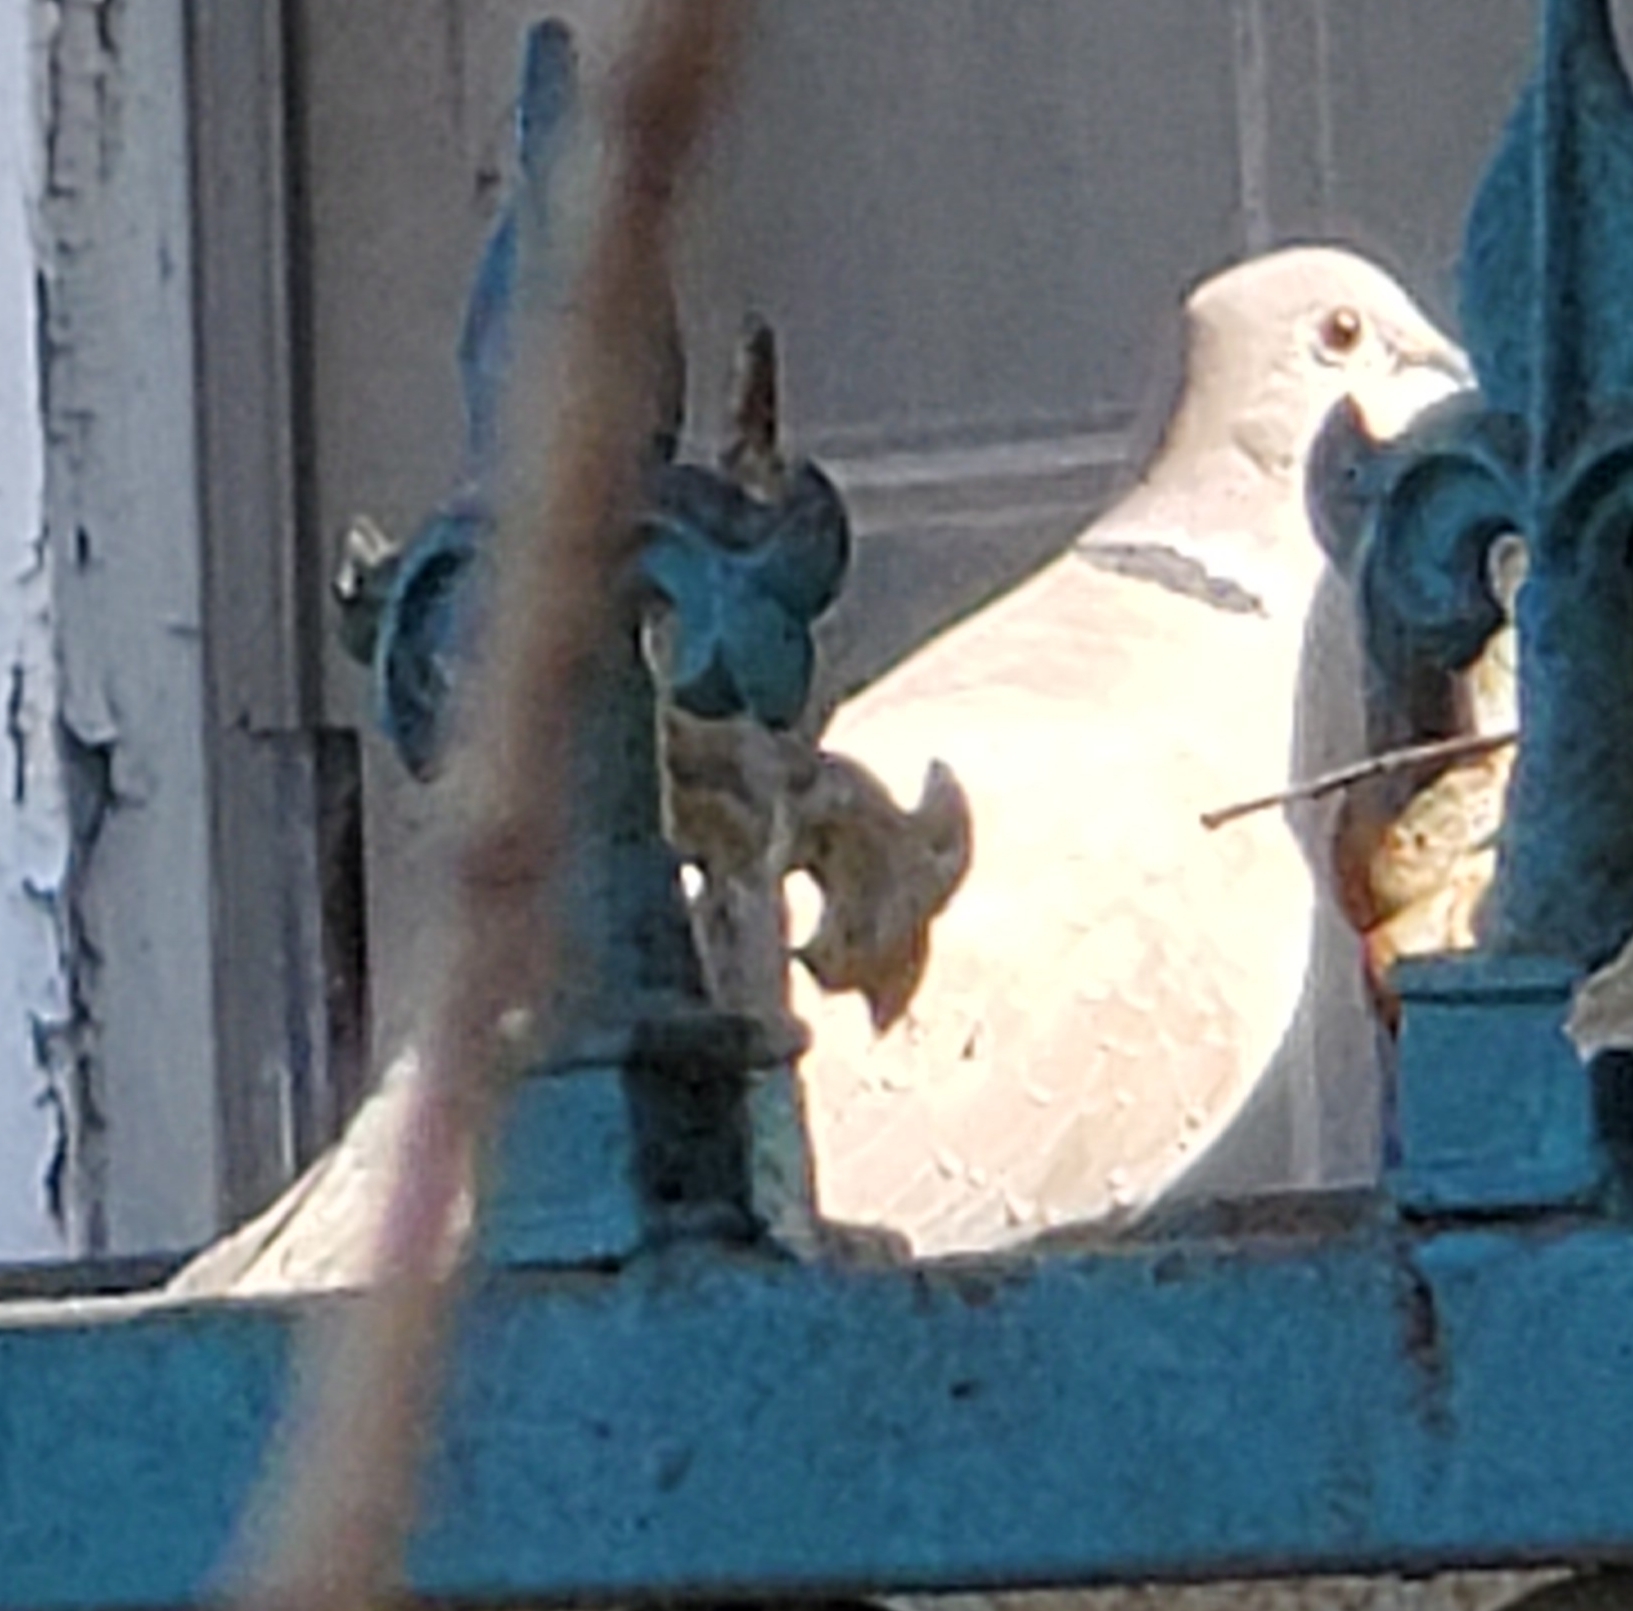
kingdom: Animalia
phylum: Chordata
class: Aves
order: Columbiformes
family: Columbidae
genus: Streptopelia
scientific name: Streptopelia decaocto
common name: Eurasian collared dove
